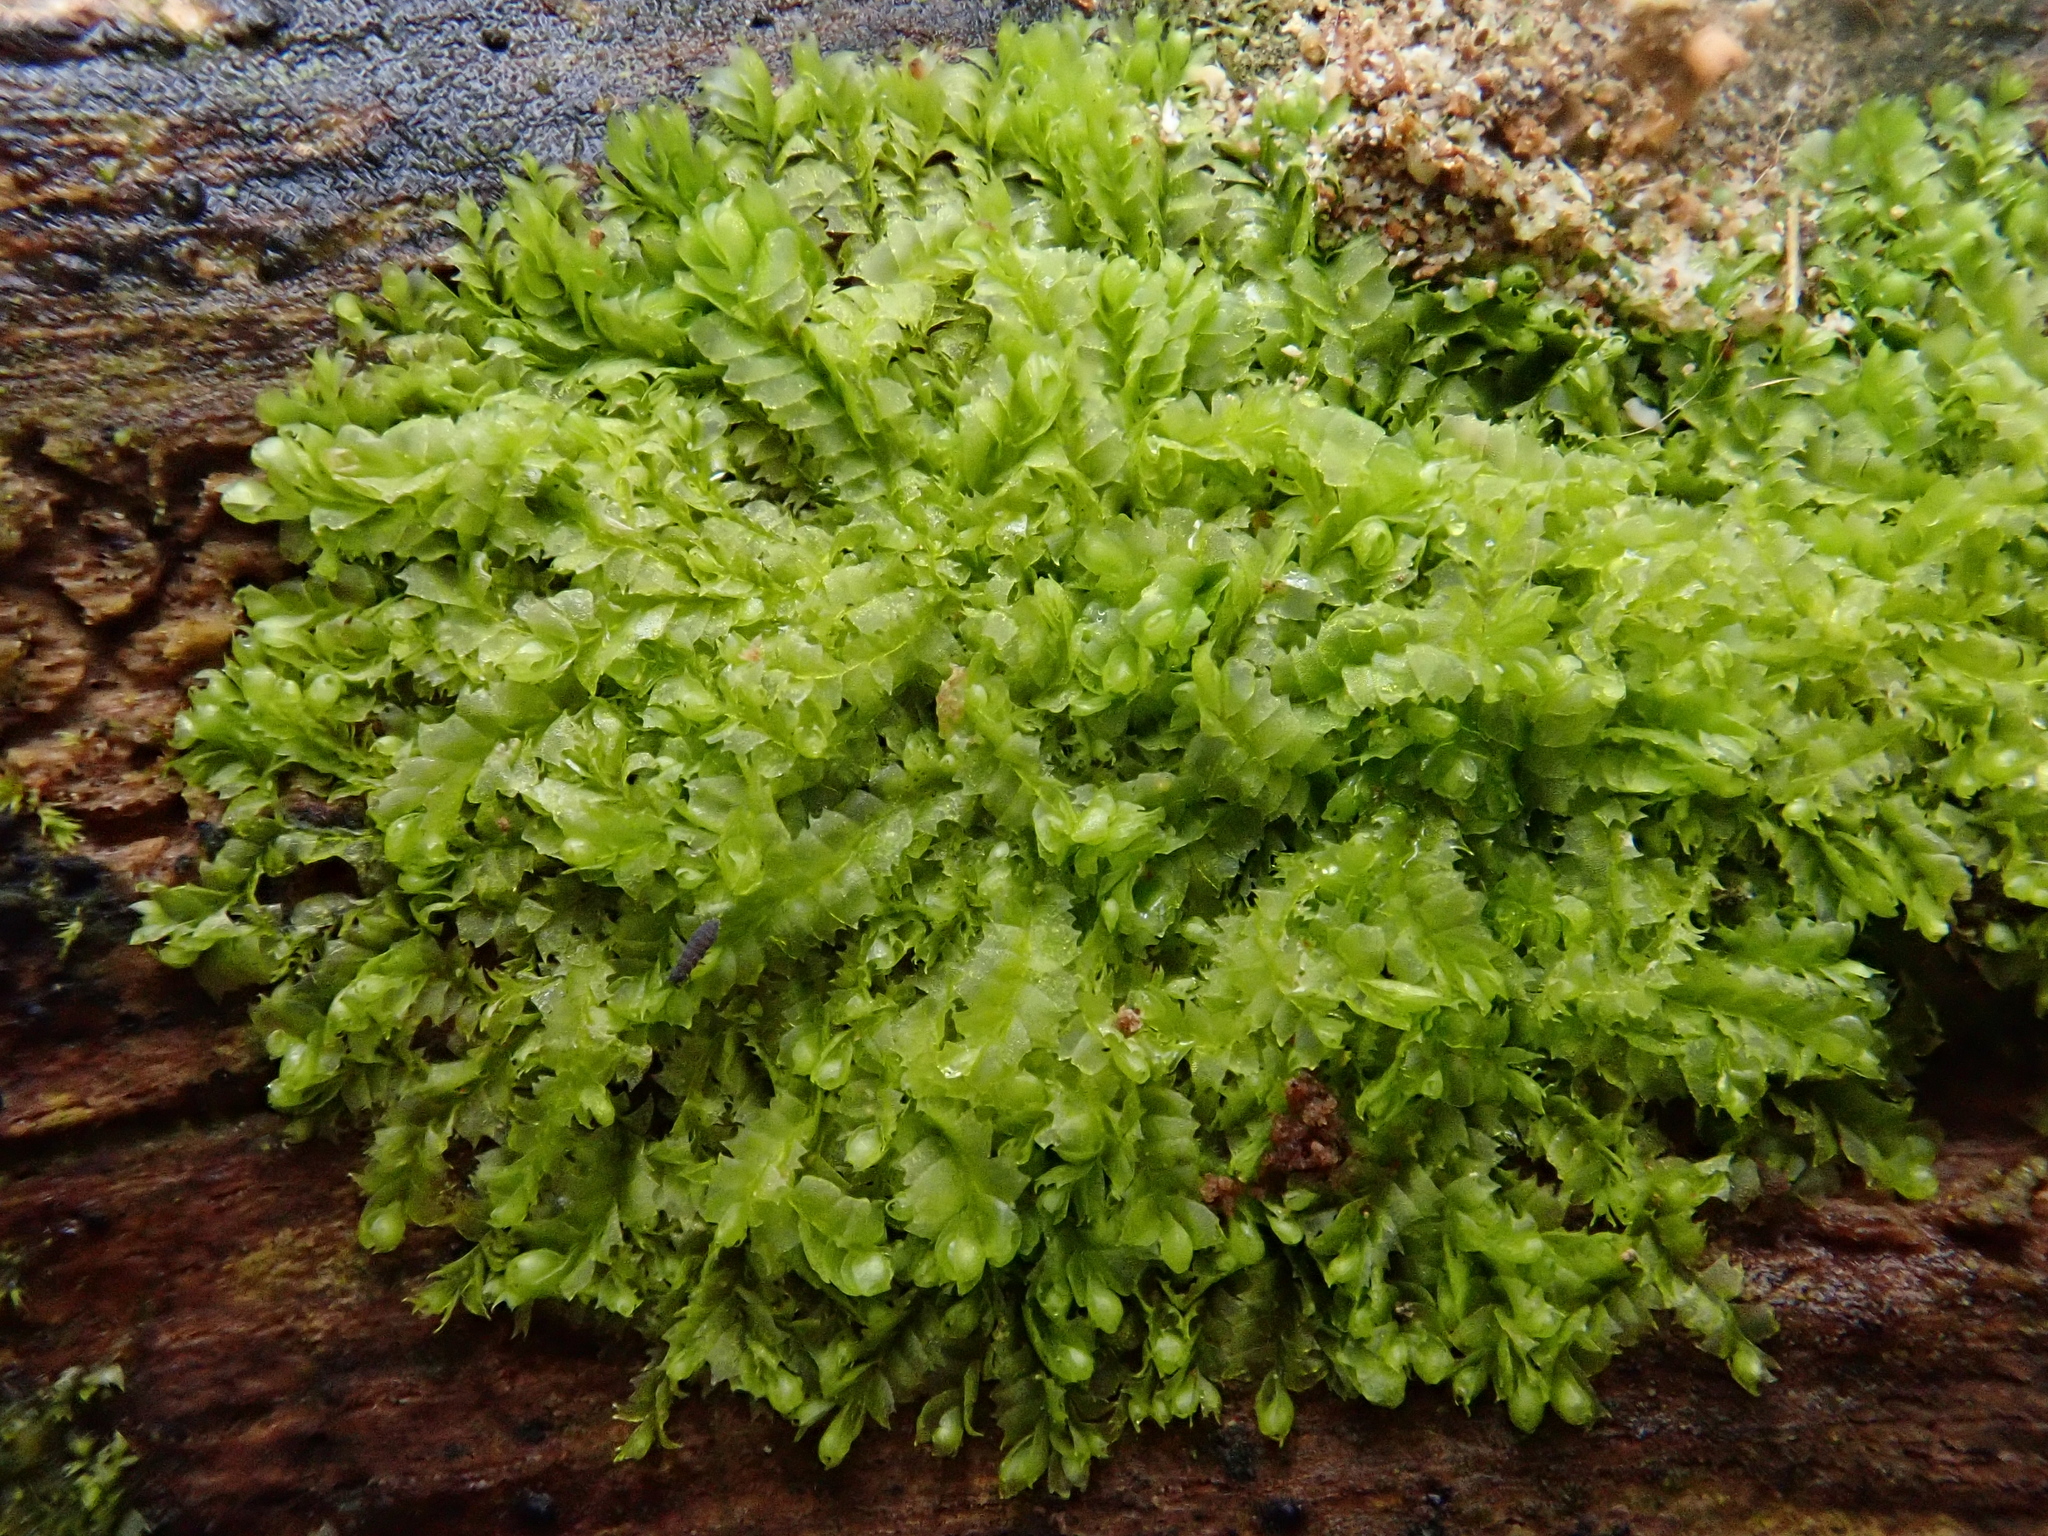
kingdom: Plantae
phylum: Marchantiophyta
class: Jungermanniopsida
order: Jungermanniales
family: Lophocoleaceae
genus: Lophocolea
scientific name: Lophocolea heterophylla
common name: Variable-leaved crestwort
